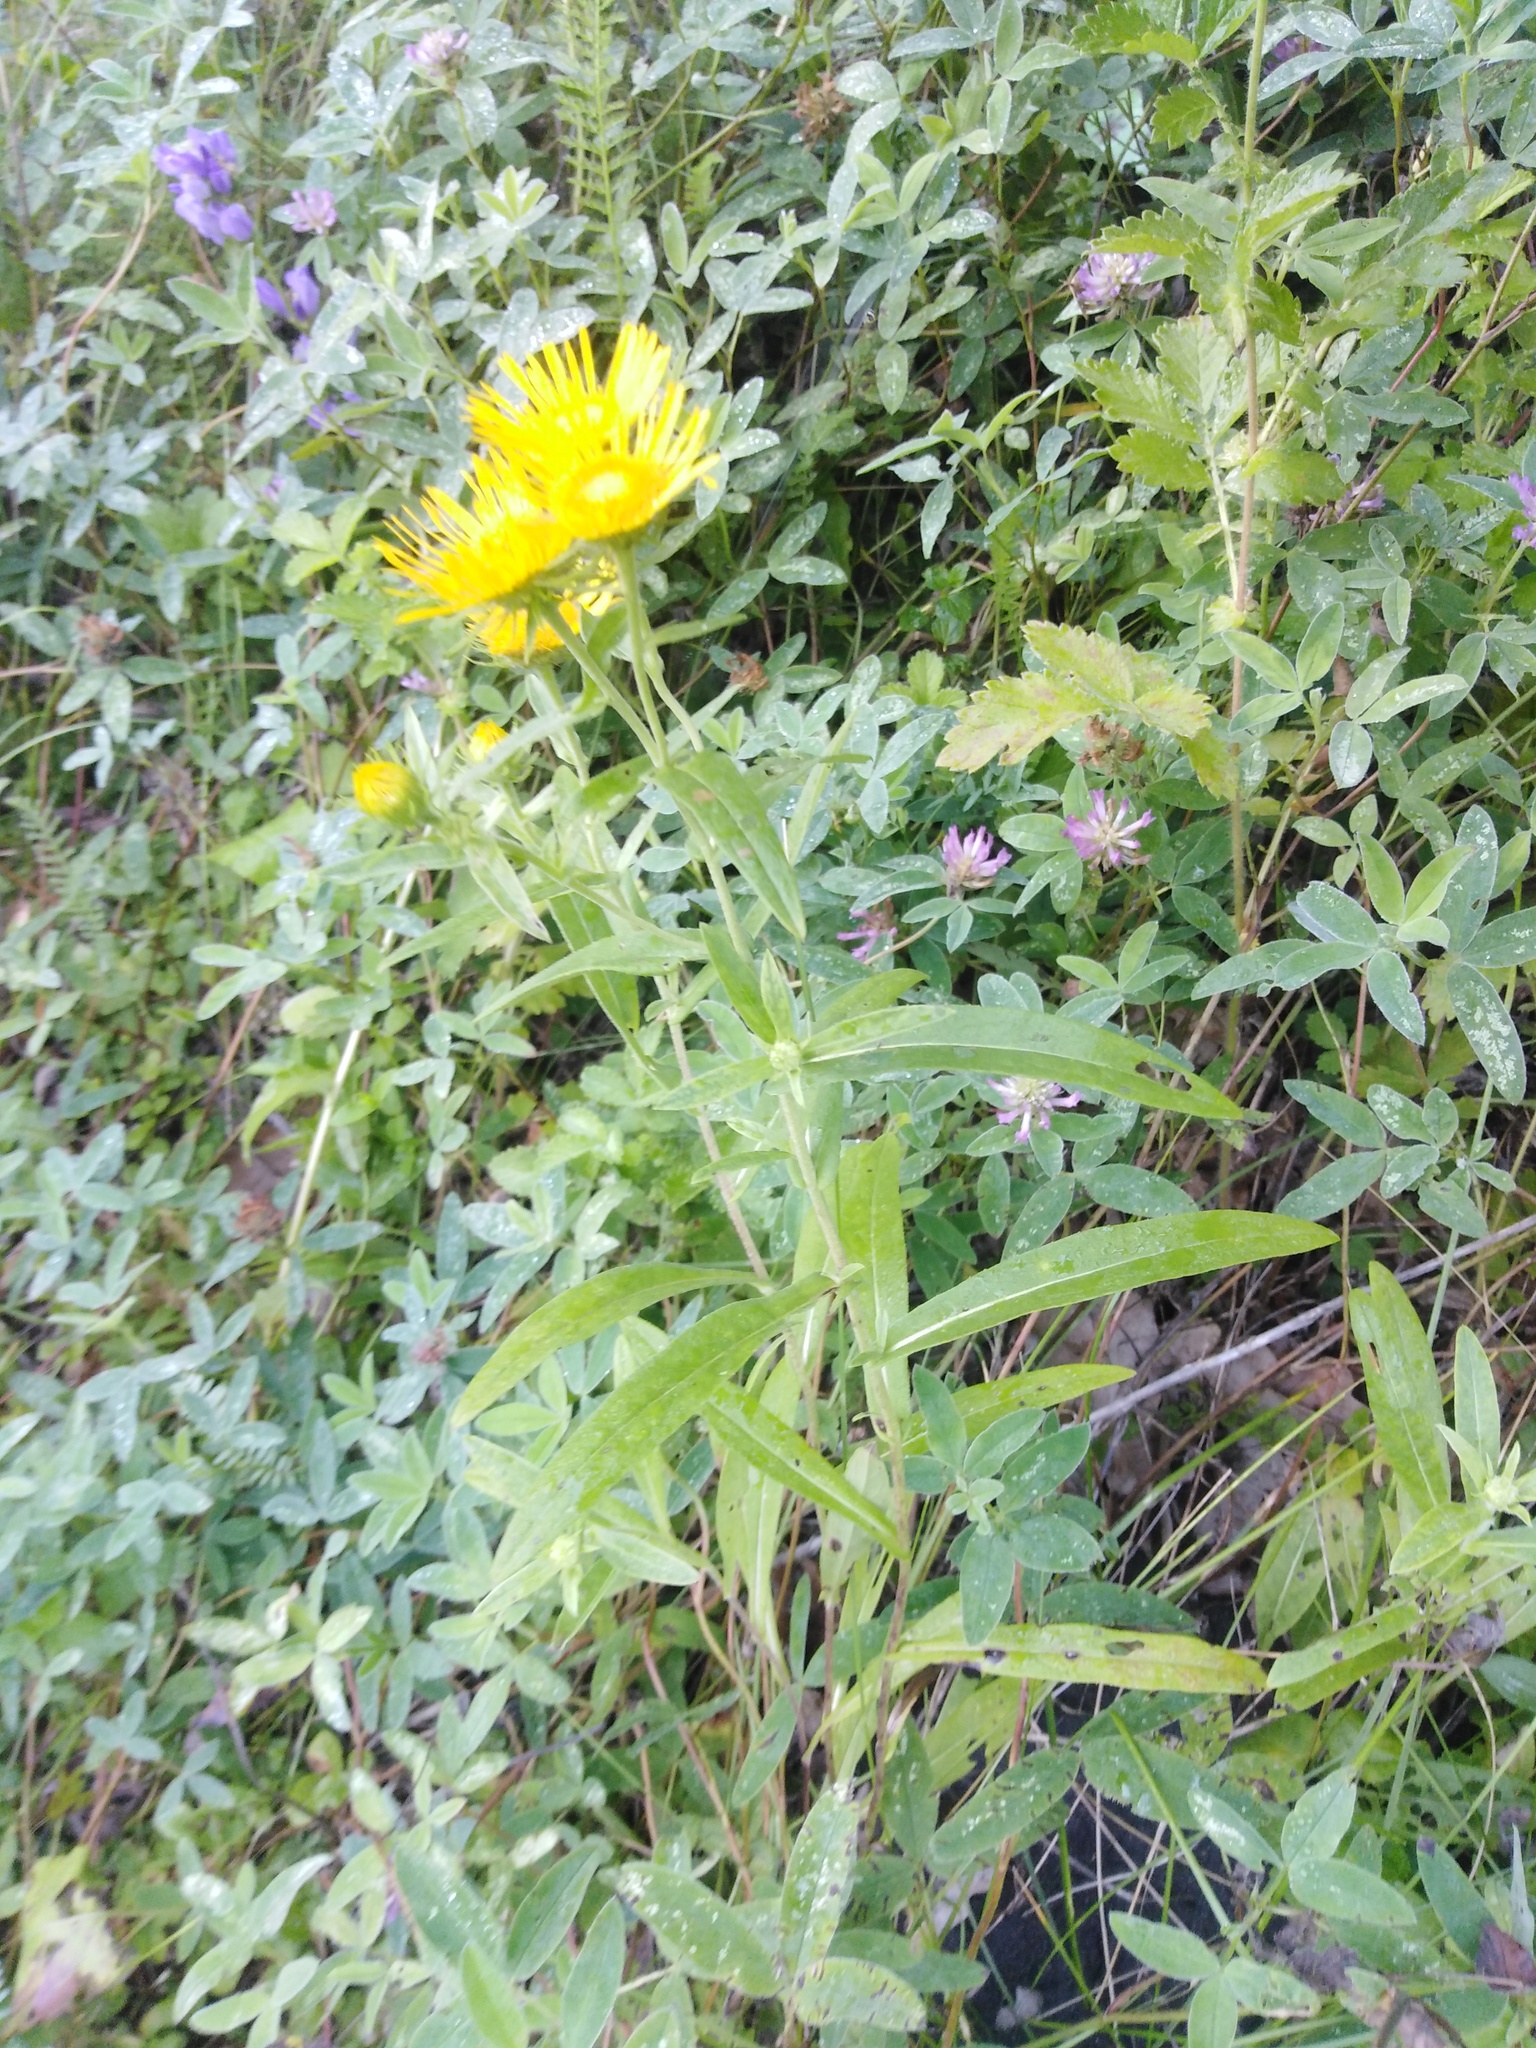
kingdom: Plantae
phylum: Tracheophyta
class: Magnoliopsida
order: Asterales
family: Asteraceae
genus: Pentanema
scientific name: Pentanema britannicum
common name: British elecampane
